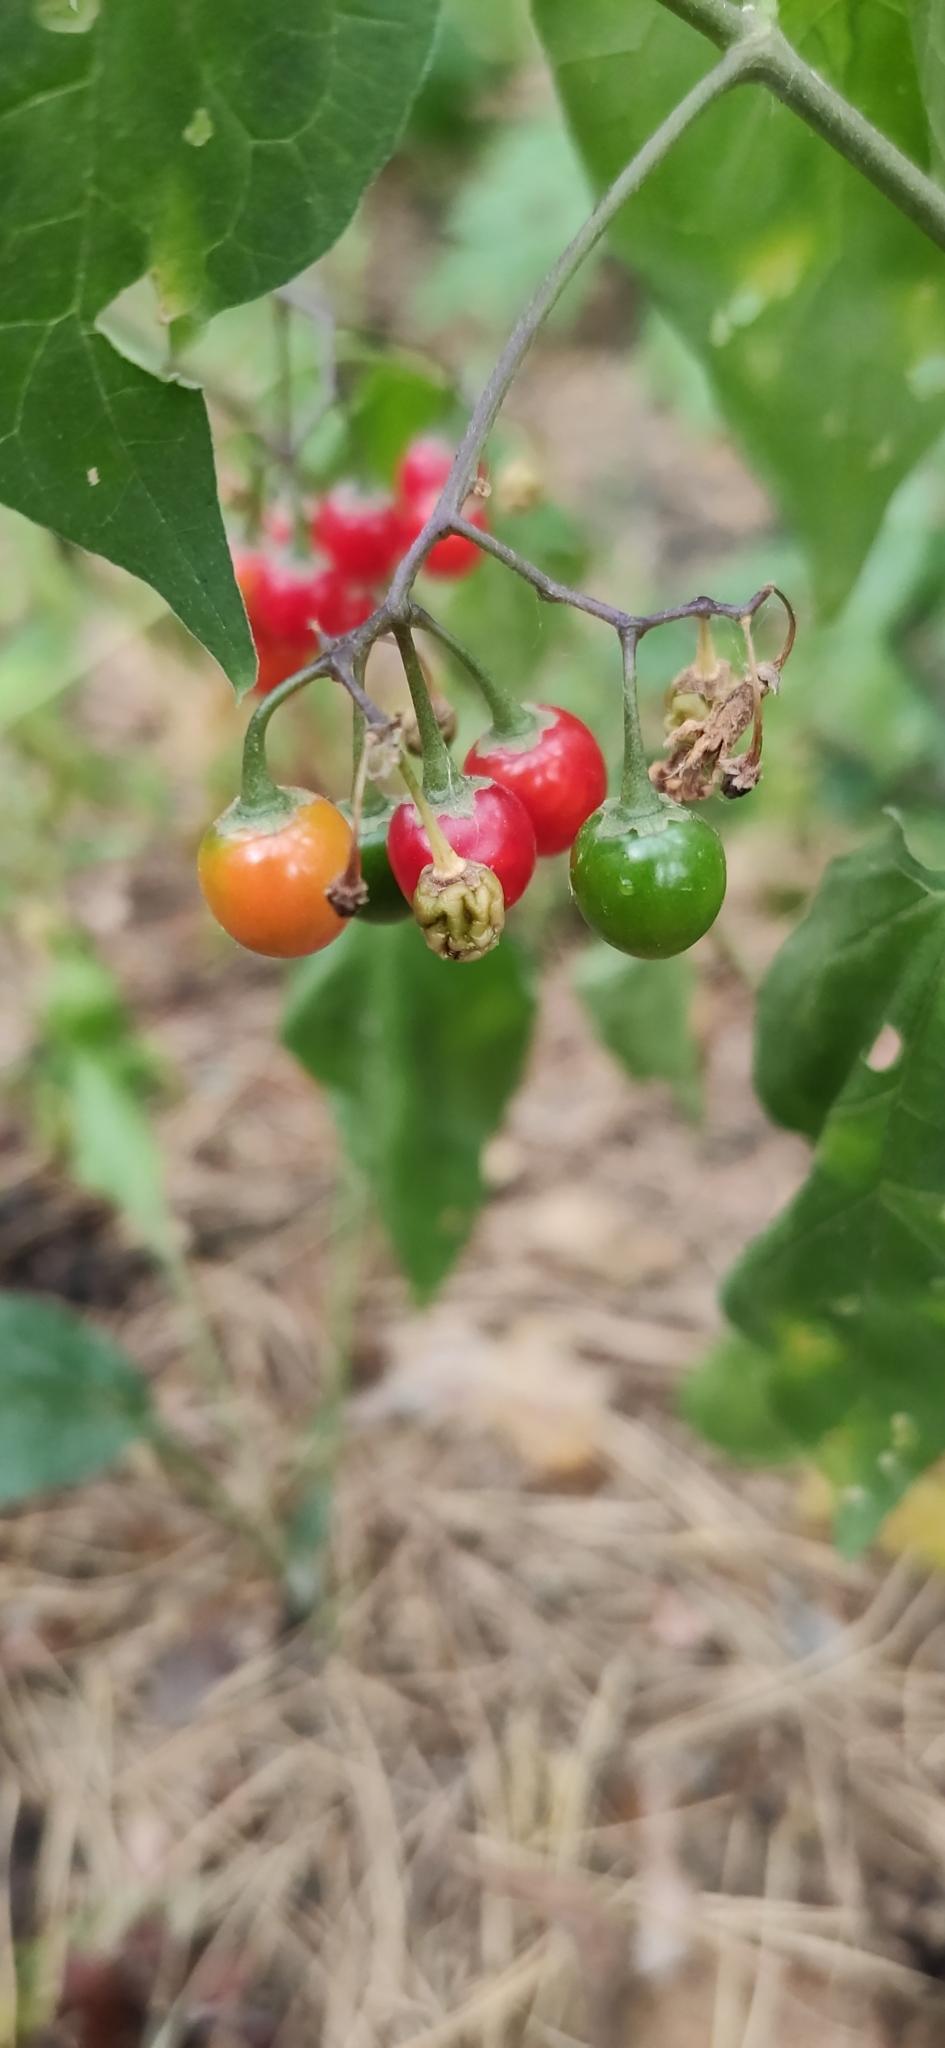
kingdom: Plantae
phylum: Tracheophyta
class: Magnoliopsida
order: Solanales
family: Solanaceae
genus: Solanum
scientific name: Solanum dulcamara
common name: Climbing nightshade
